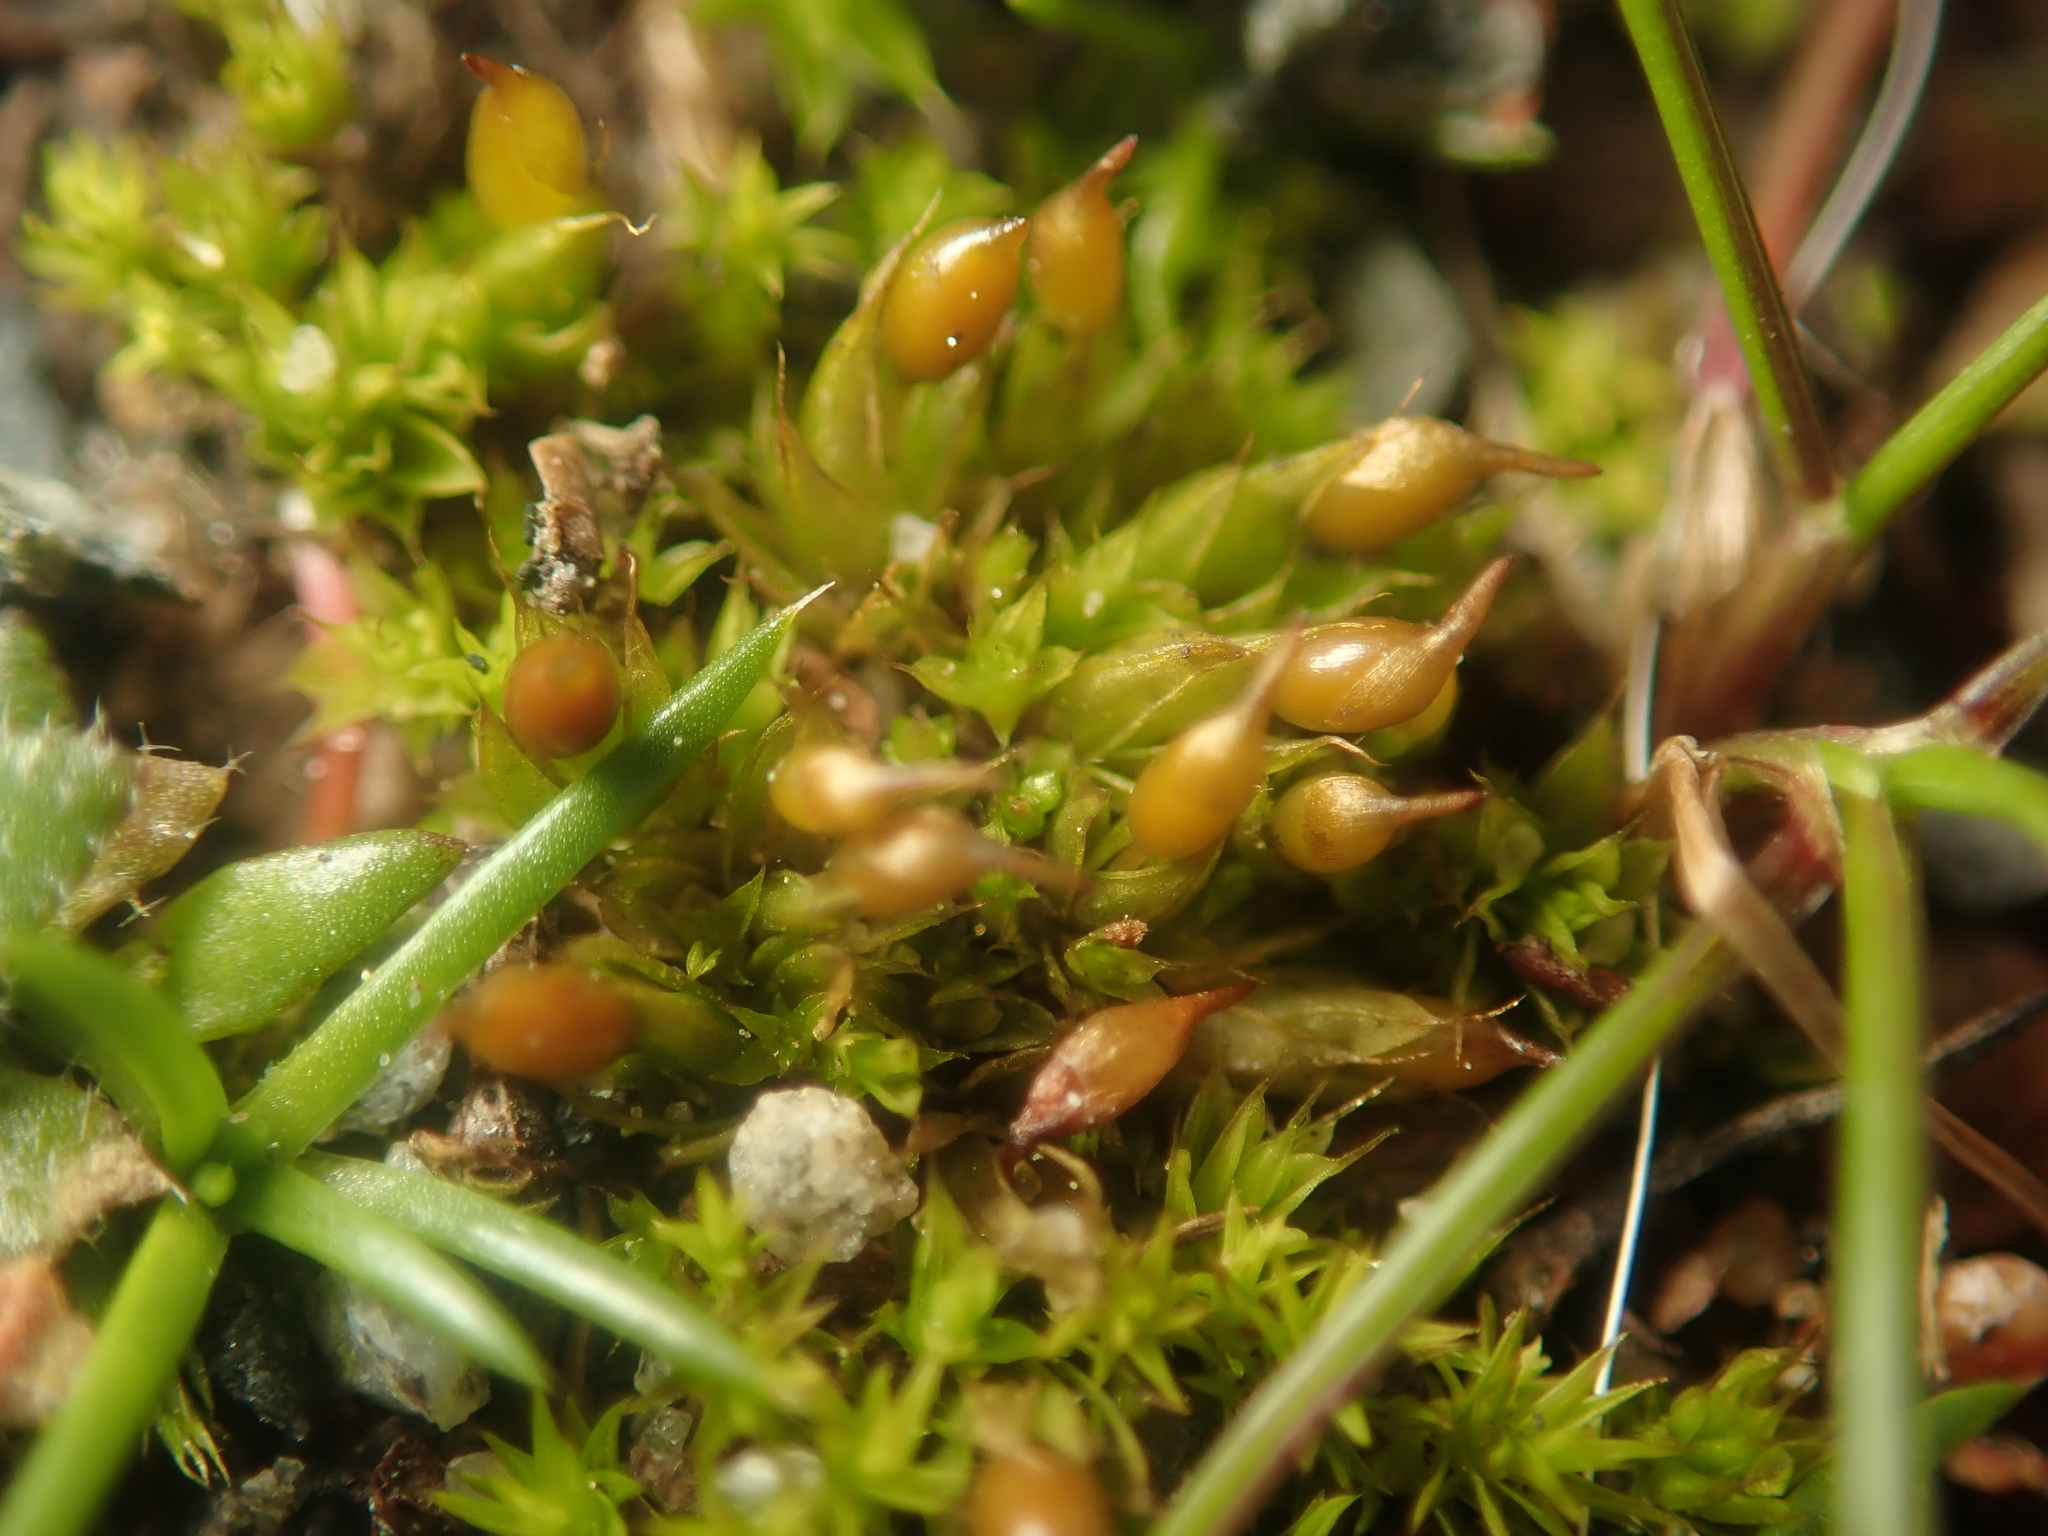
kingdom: Plantae
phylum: Bryophyta
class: Bryopsida
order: Pottiales
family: Pottiaceae
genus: Tortula
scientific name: Tortula protobryoides
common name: Tall pottia
